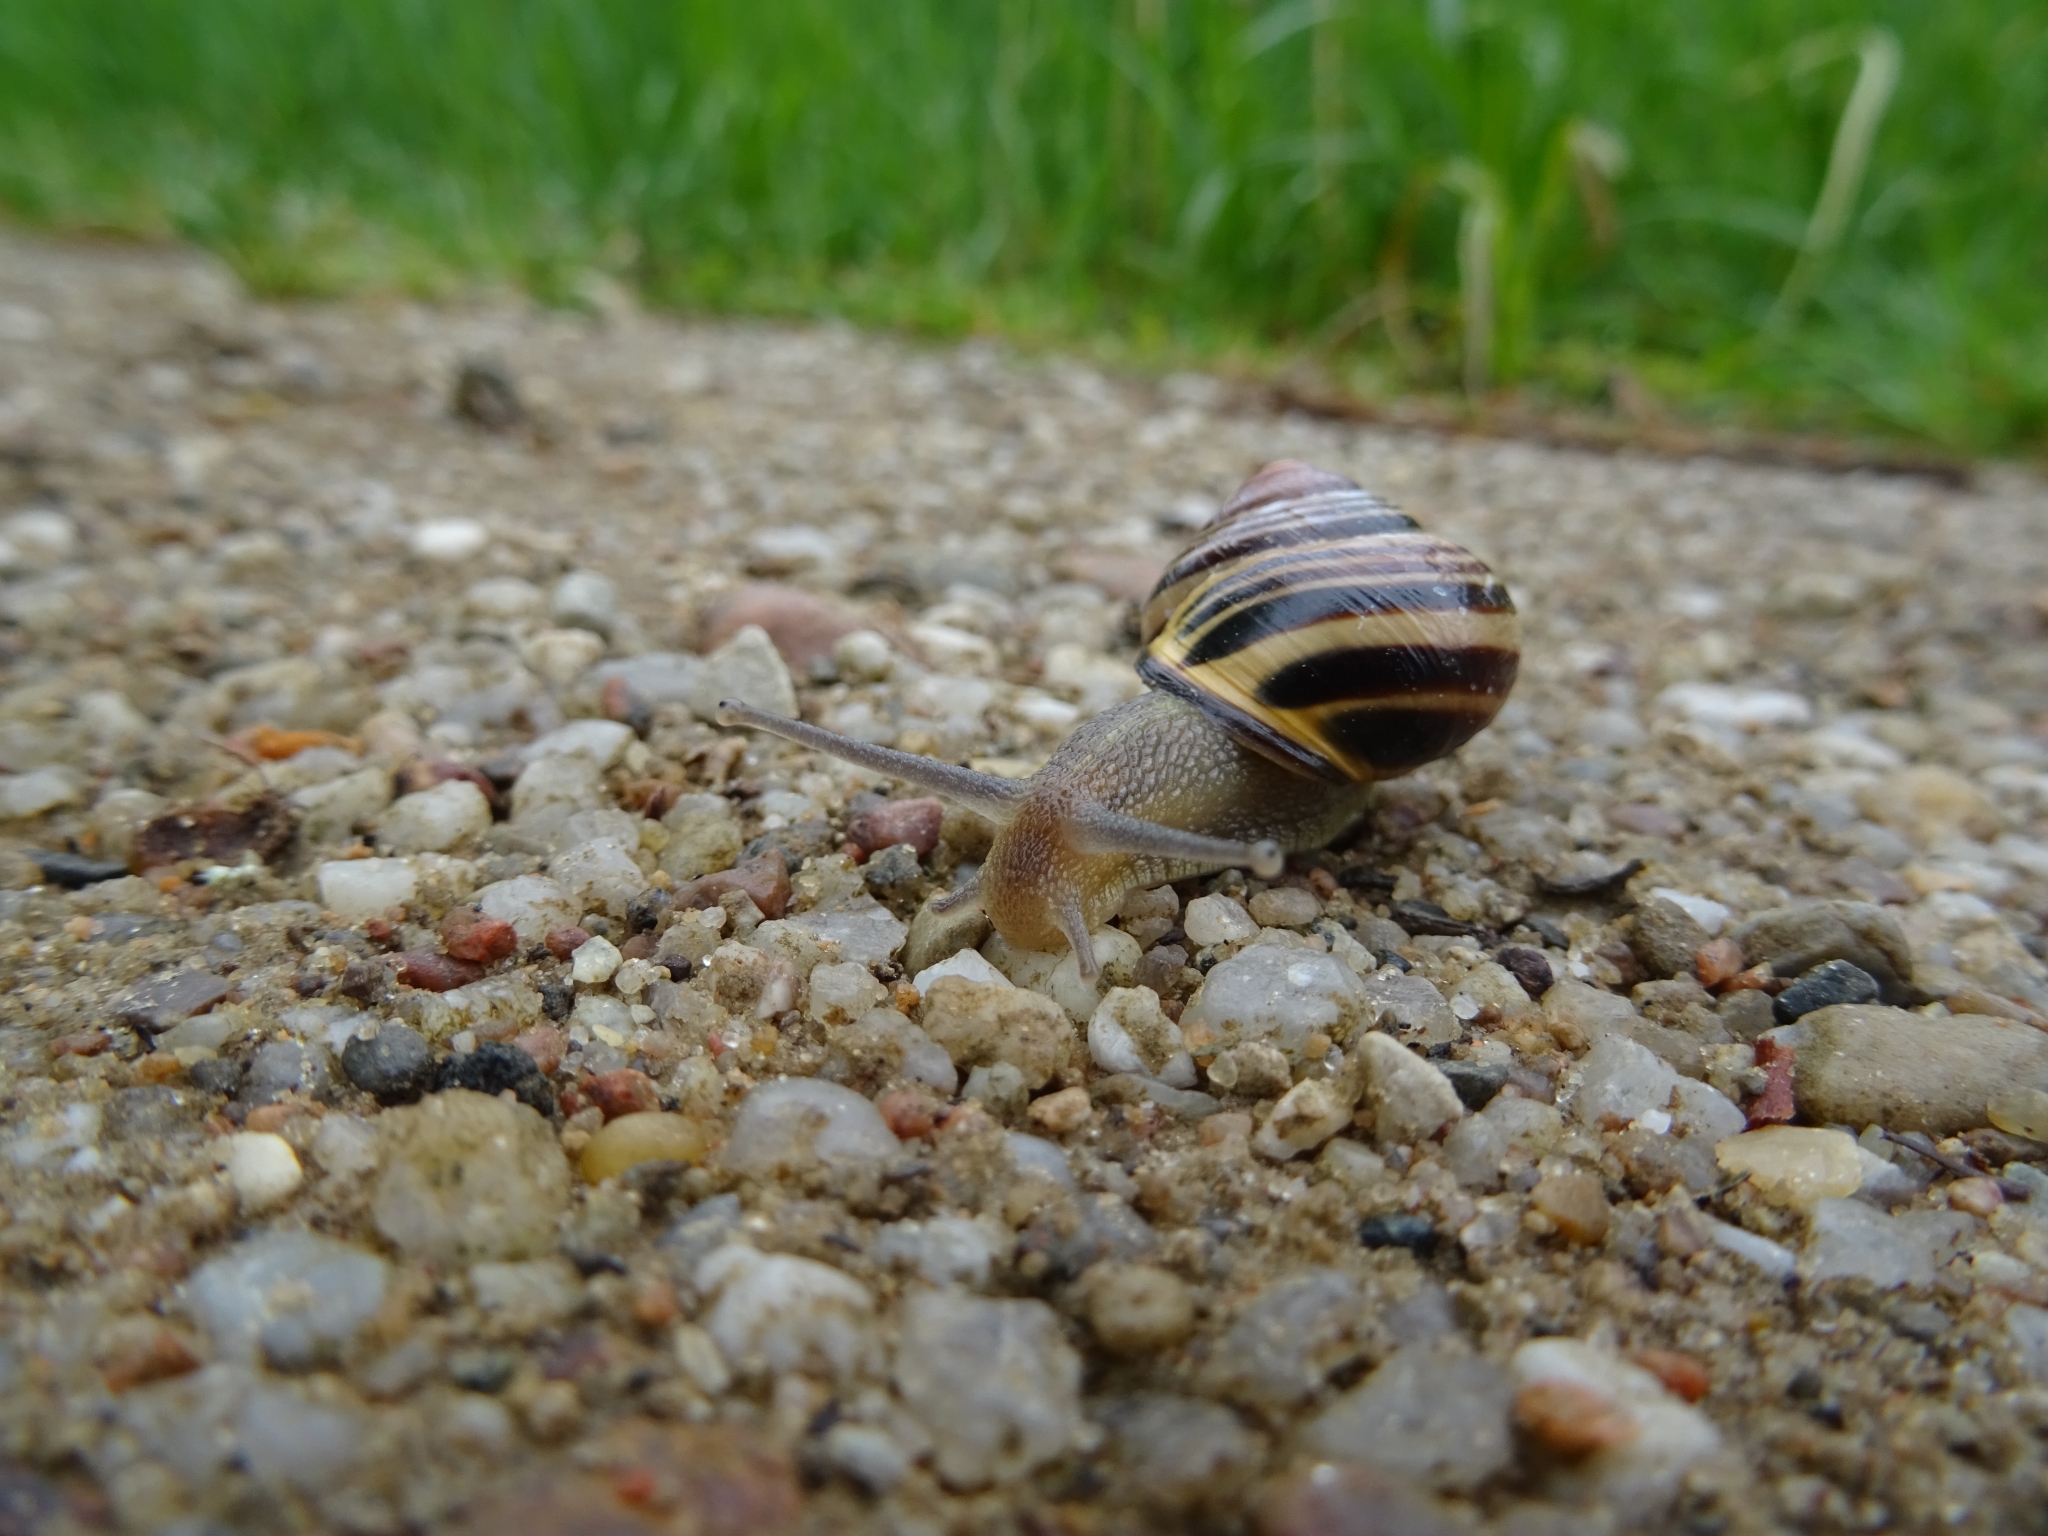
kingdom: Animalia
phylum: Mollusca
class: Gastropoda
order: Stylommatophora
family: Helicidae
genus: Cepaea
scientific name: Cepaea nemoralis
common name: Grovesnail
